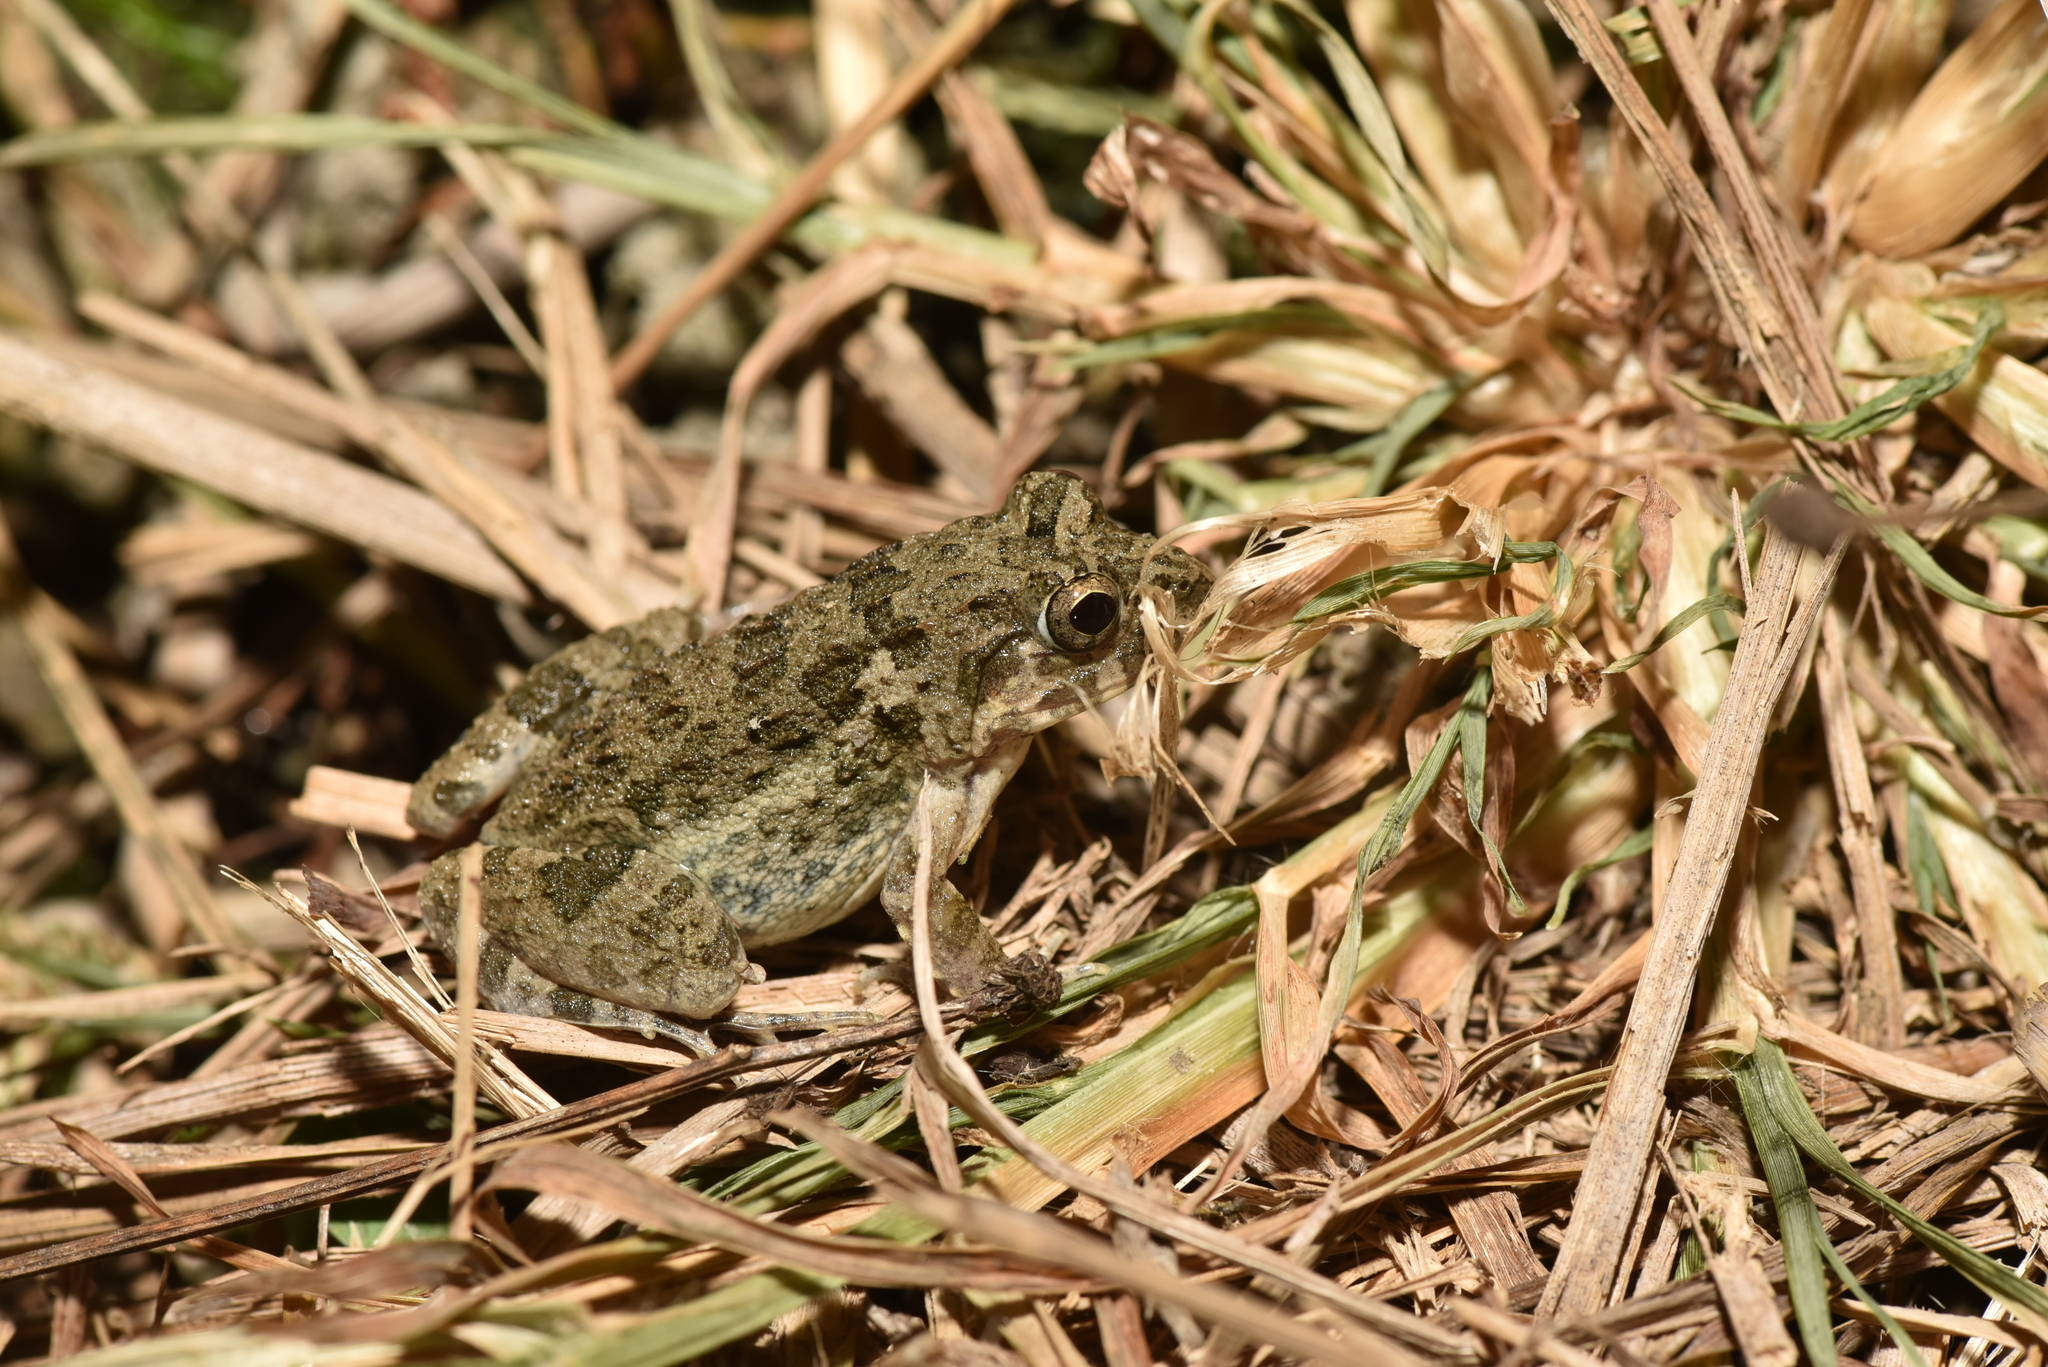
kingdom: Animalia
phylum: Chordata
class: Amphibia
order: Anura
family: Dicroglossidae
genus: Fejervarya
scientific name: Fejervarya limnocharis
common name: Asian grass frog/common pond frog/field frog/grass frog/indian rice frog
